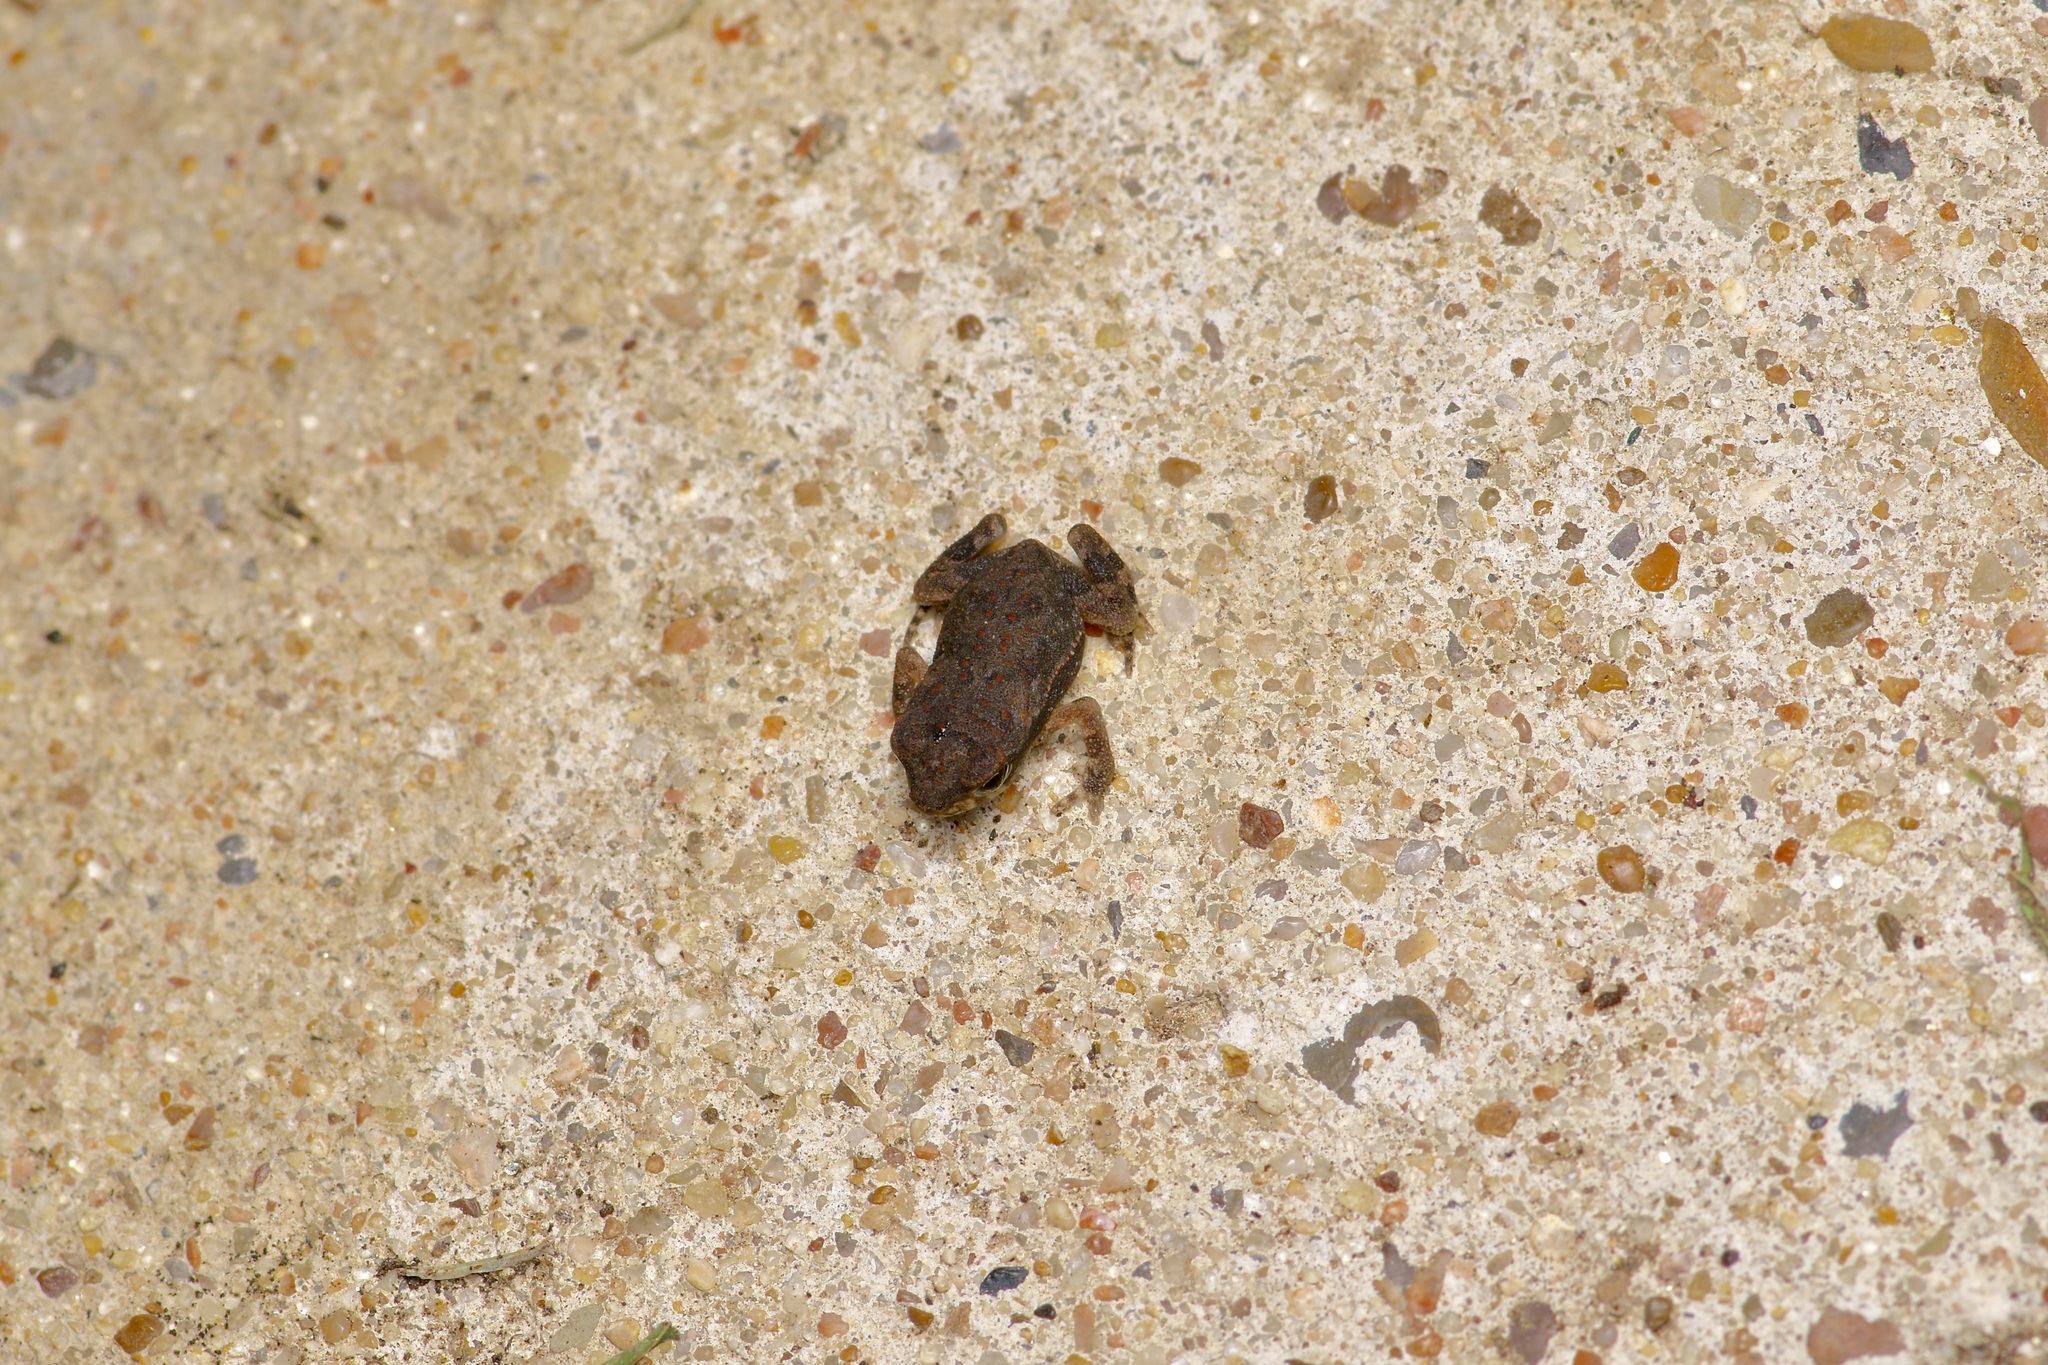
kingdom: Animalia
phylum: Chordata
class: Amphibia
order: Anura
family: Bufonidae
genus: Incilius
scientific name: Incilius nebulifer
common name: Gulf coast toad
